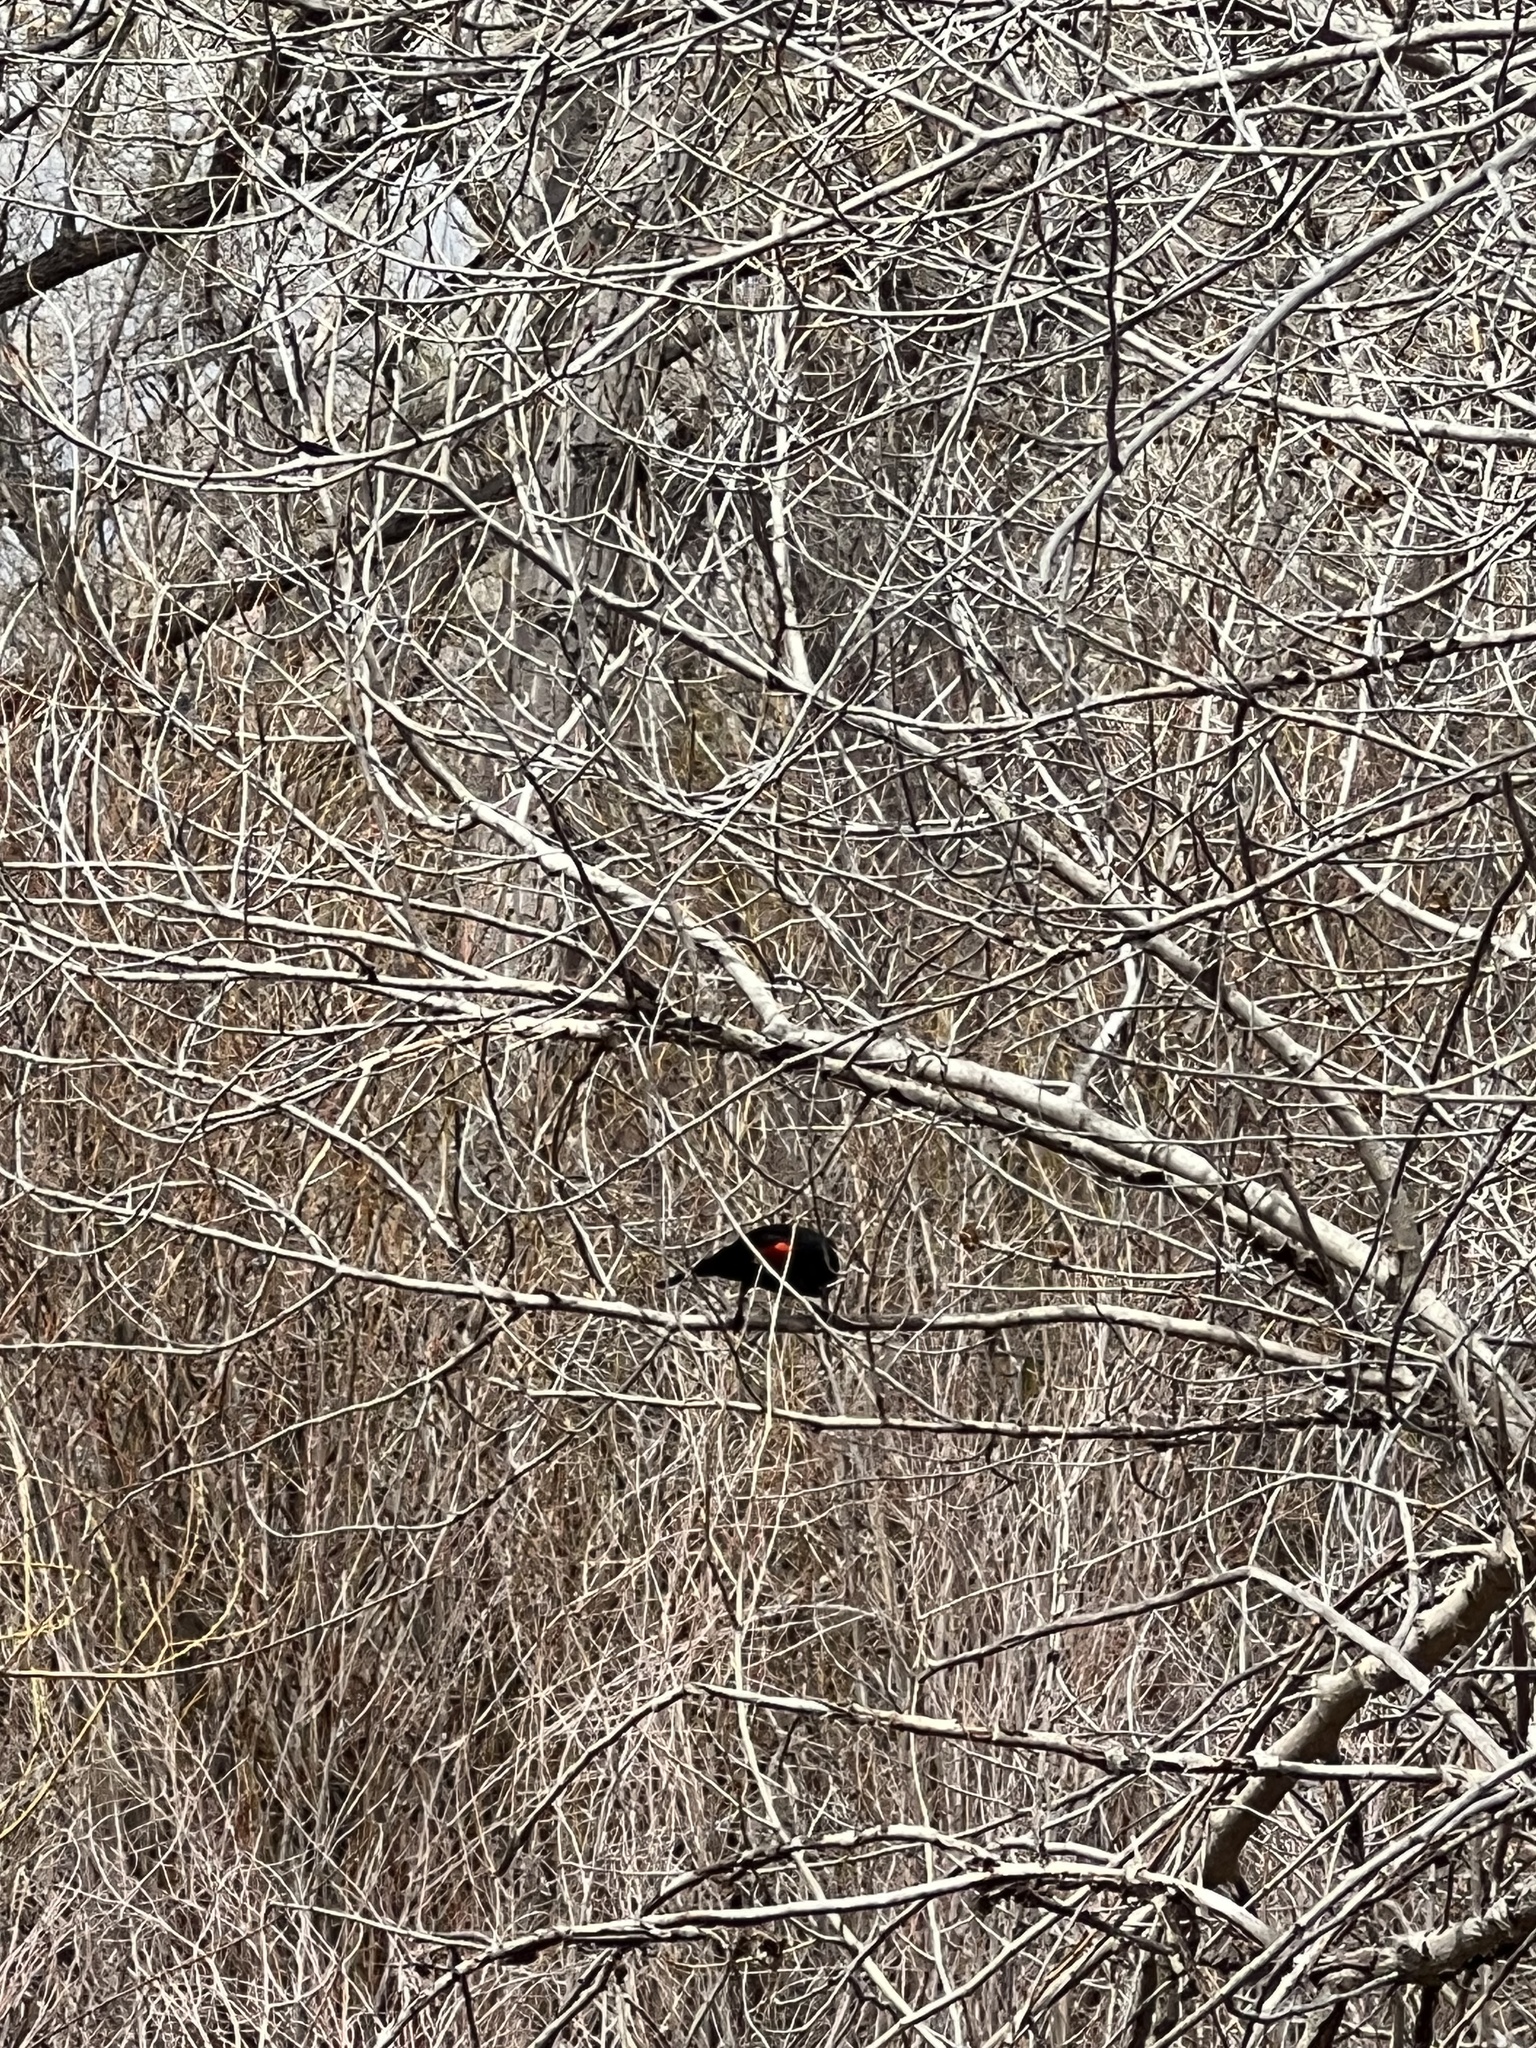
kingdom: Animalia
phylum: Chordata
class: Aves
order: Passeriformes
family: Icteridae
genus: Agelaius
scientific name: Agelaius phoeniceus
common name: Red-winged blackbird
